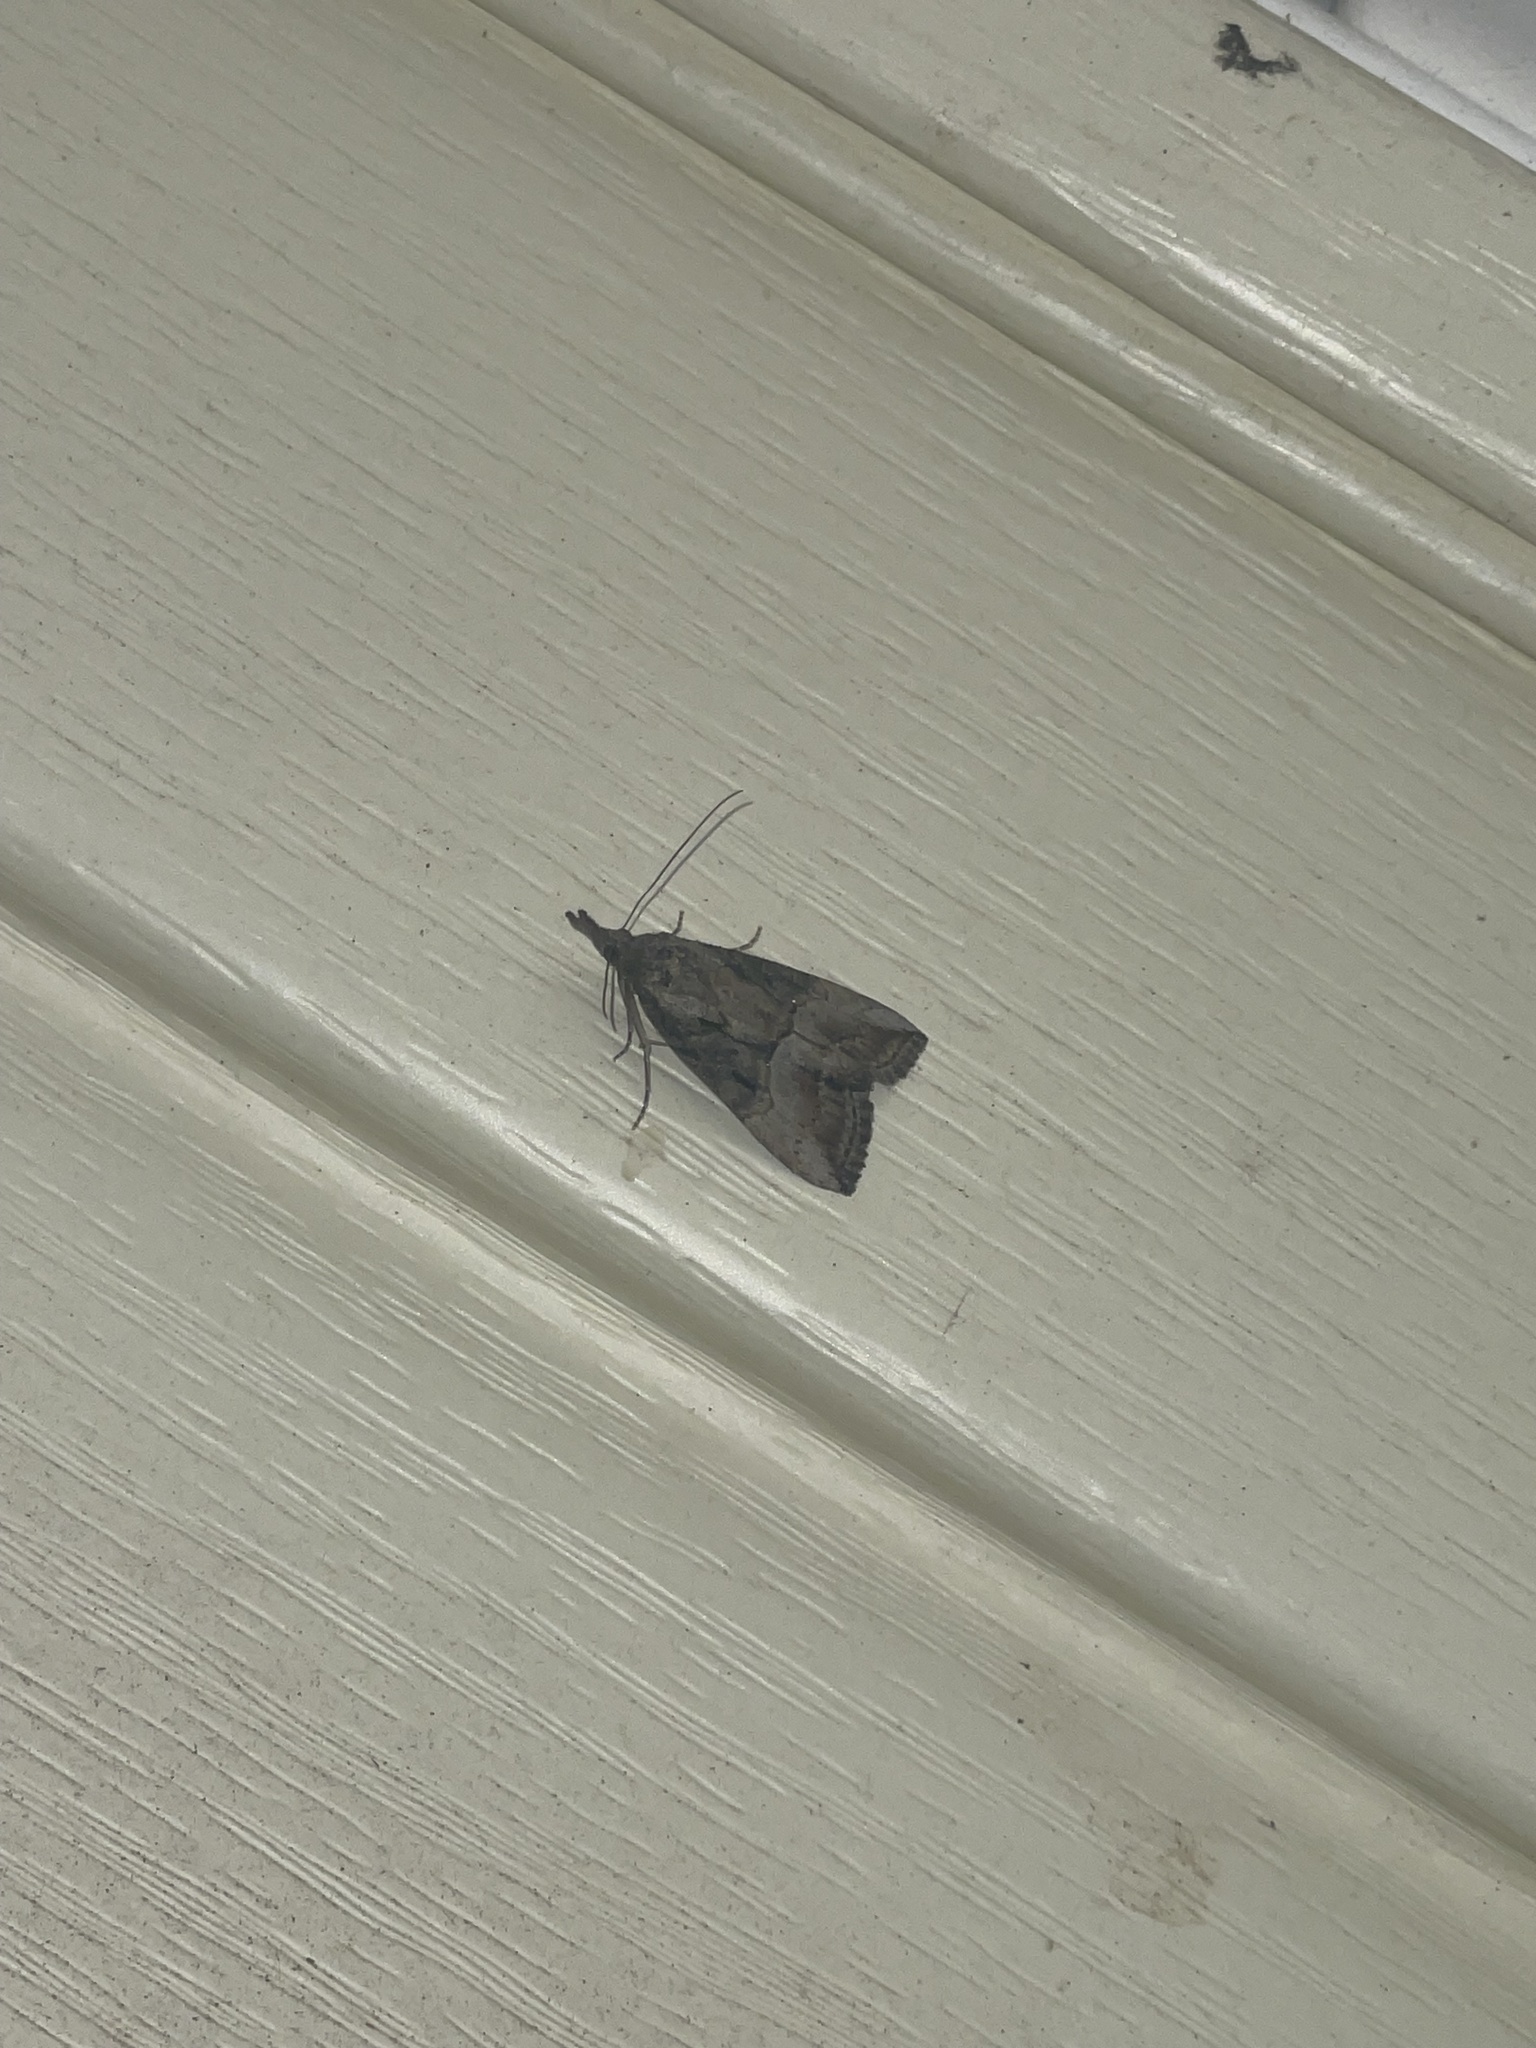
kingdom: Animalia
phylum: Arthropoda
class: Insecta
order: Lepidoptera
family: Erebidae
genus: Hypena
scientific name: Hypena scabra
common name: Green cloverworm
